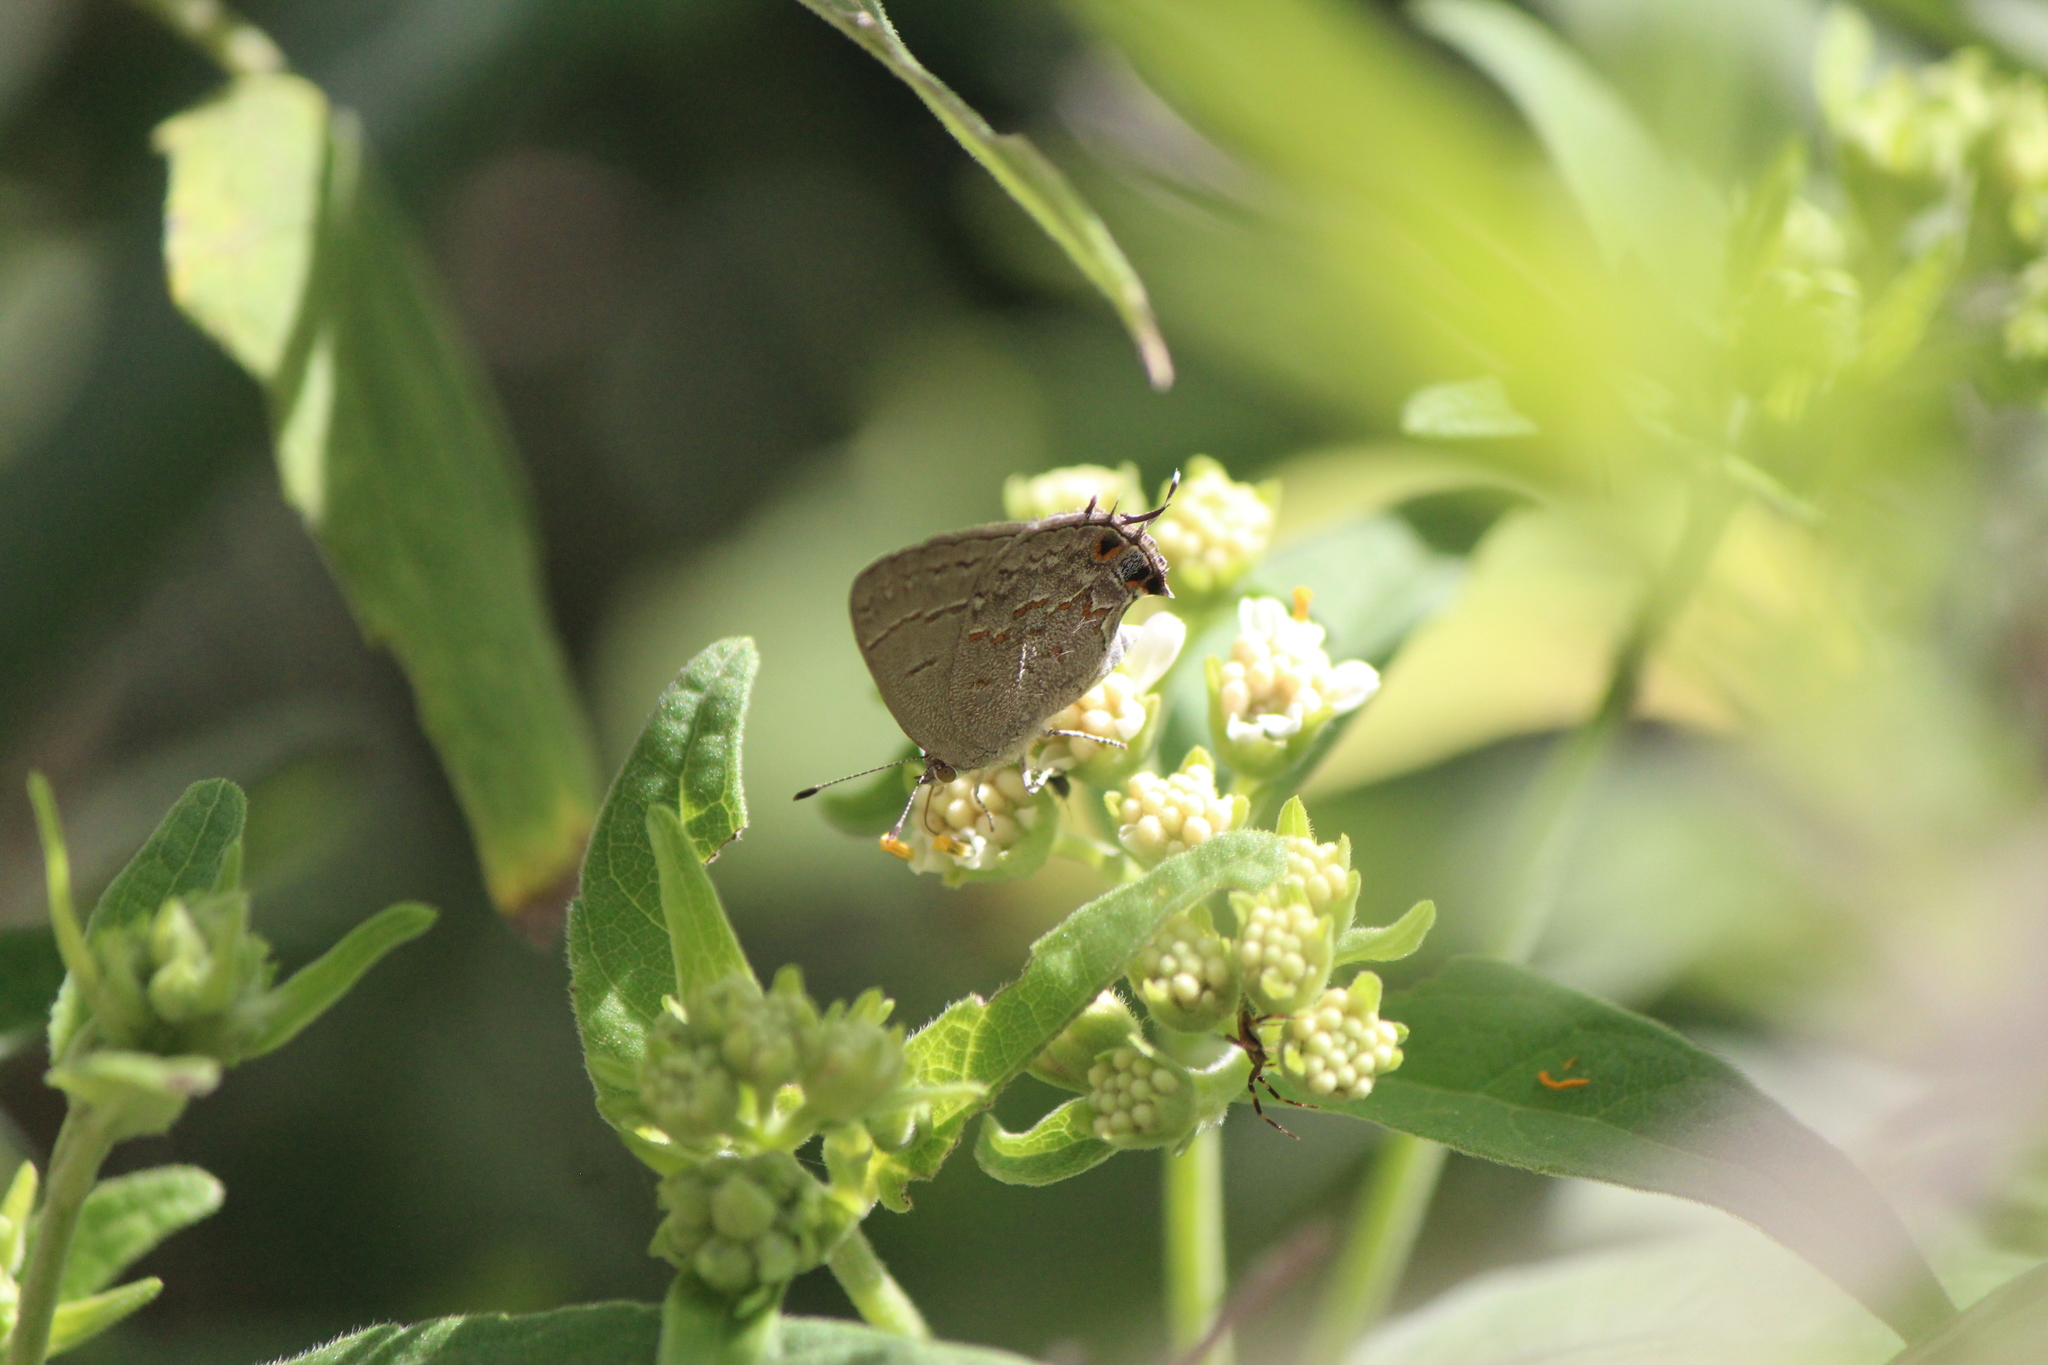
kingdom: Animalia
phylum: Arthropoda
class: Insecta
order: Lepidoptera
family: Lycaenidae
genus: Ministrymon
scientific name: Ministrymon leda
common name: Leda ministreak
